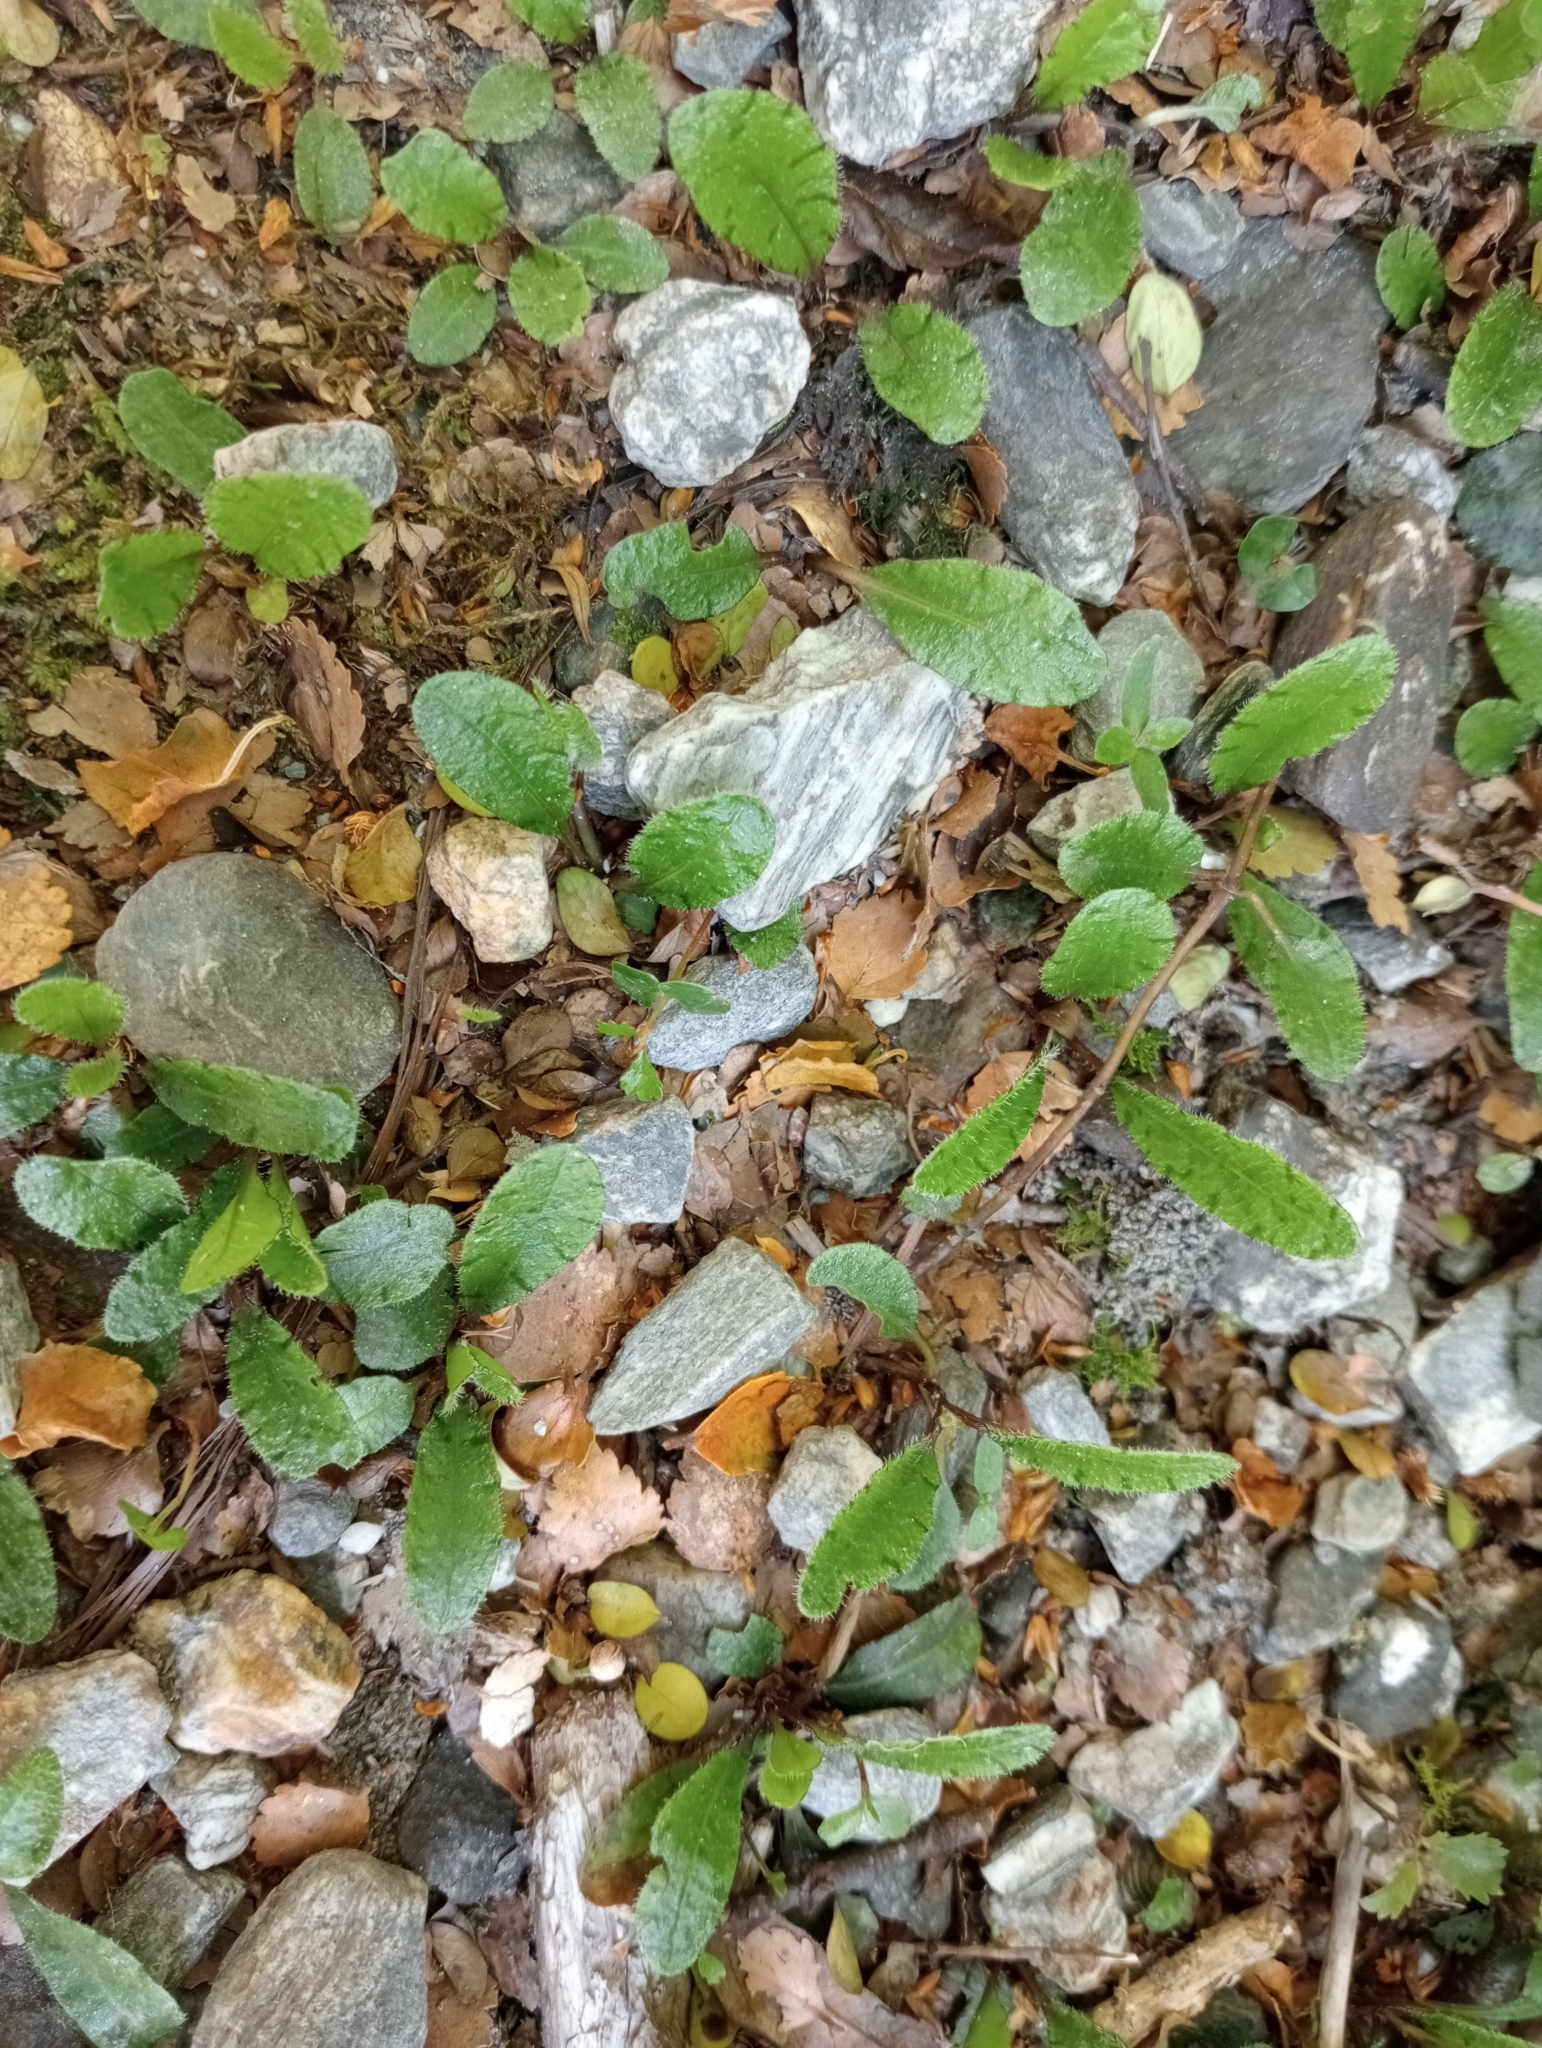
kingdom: Plantae
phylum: Tracheophyta
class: Magnoliopsida
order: Lamiales
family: Mazaceae
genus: Mazus
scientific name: Mazus radicans
